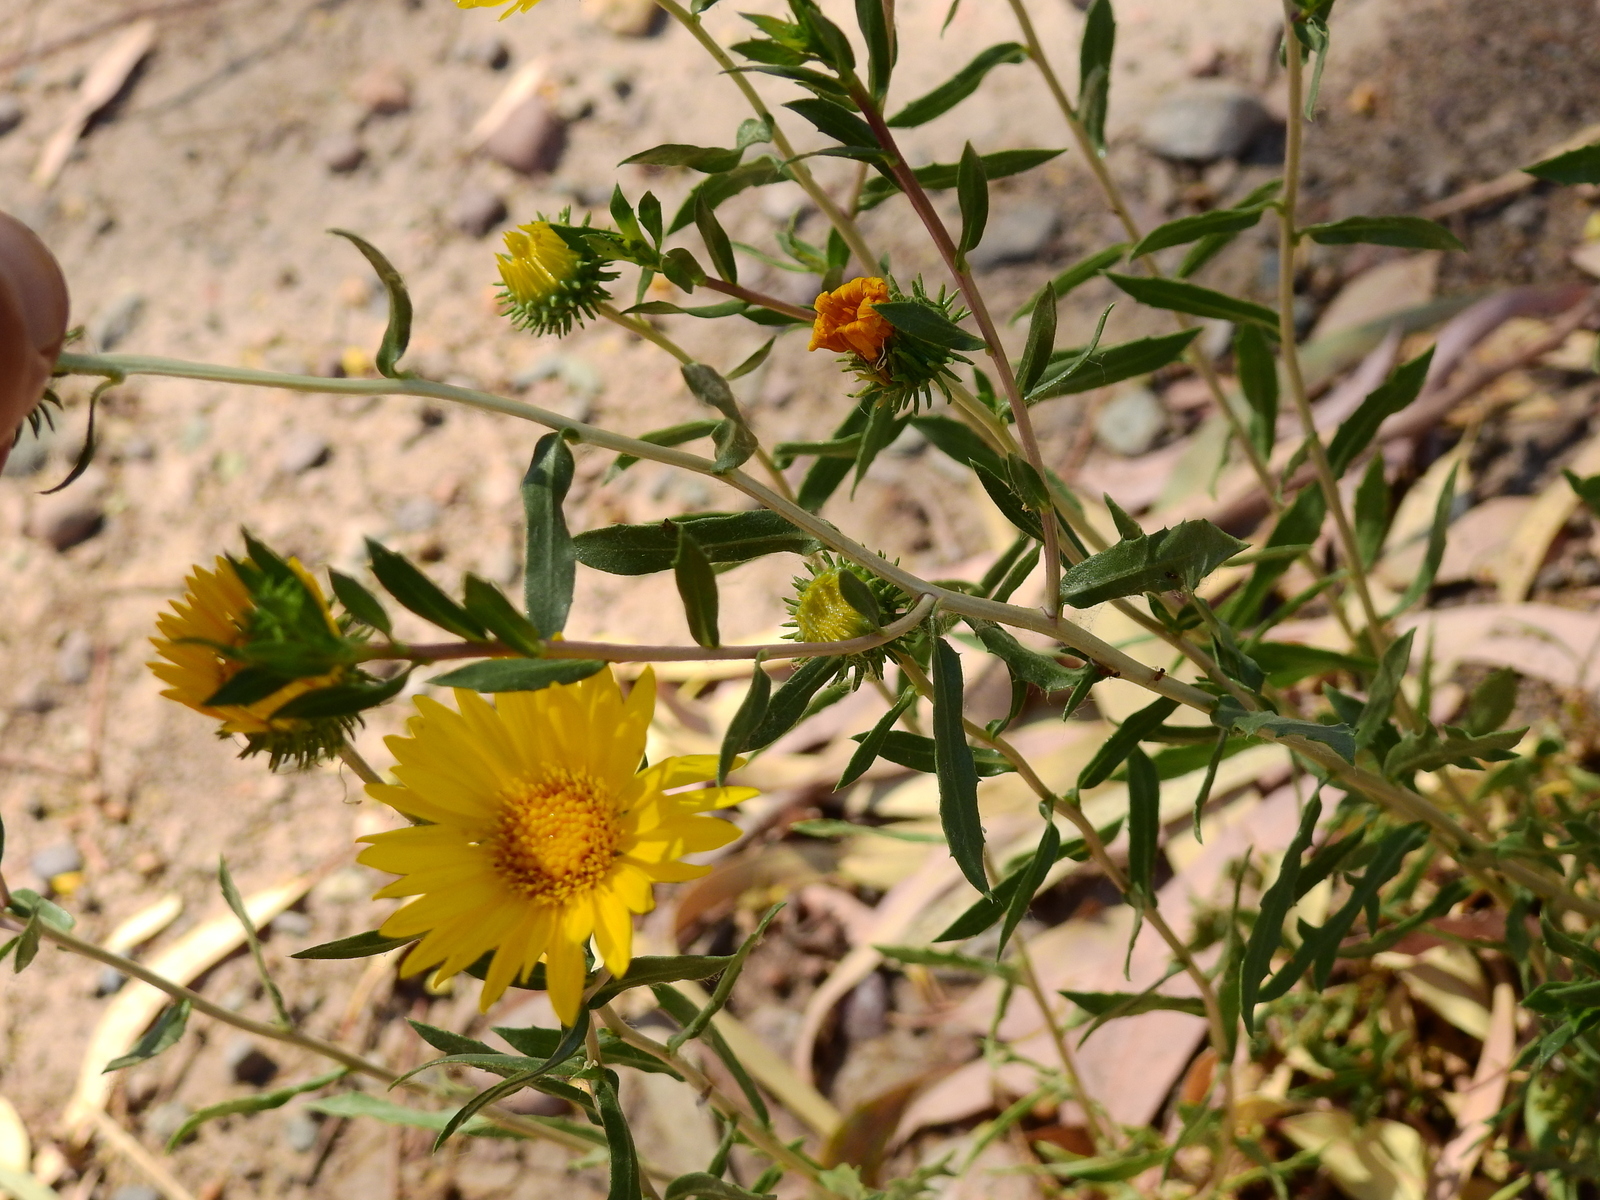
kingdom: Plantae
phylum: Tracheophyta
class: Magnoliopsida
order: Asterales
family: Asteraceae
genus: Grindelia
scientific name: Grindelia pulchella
